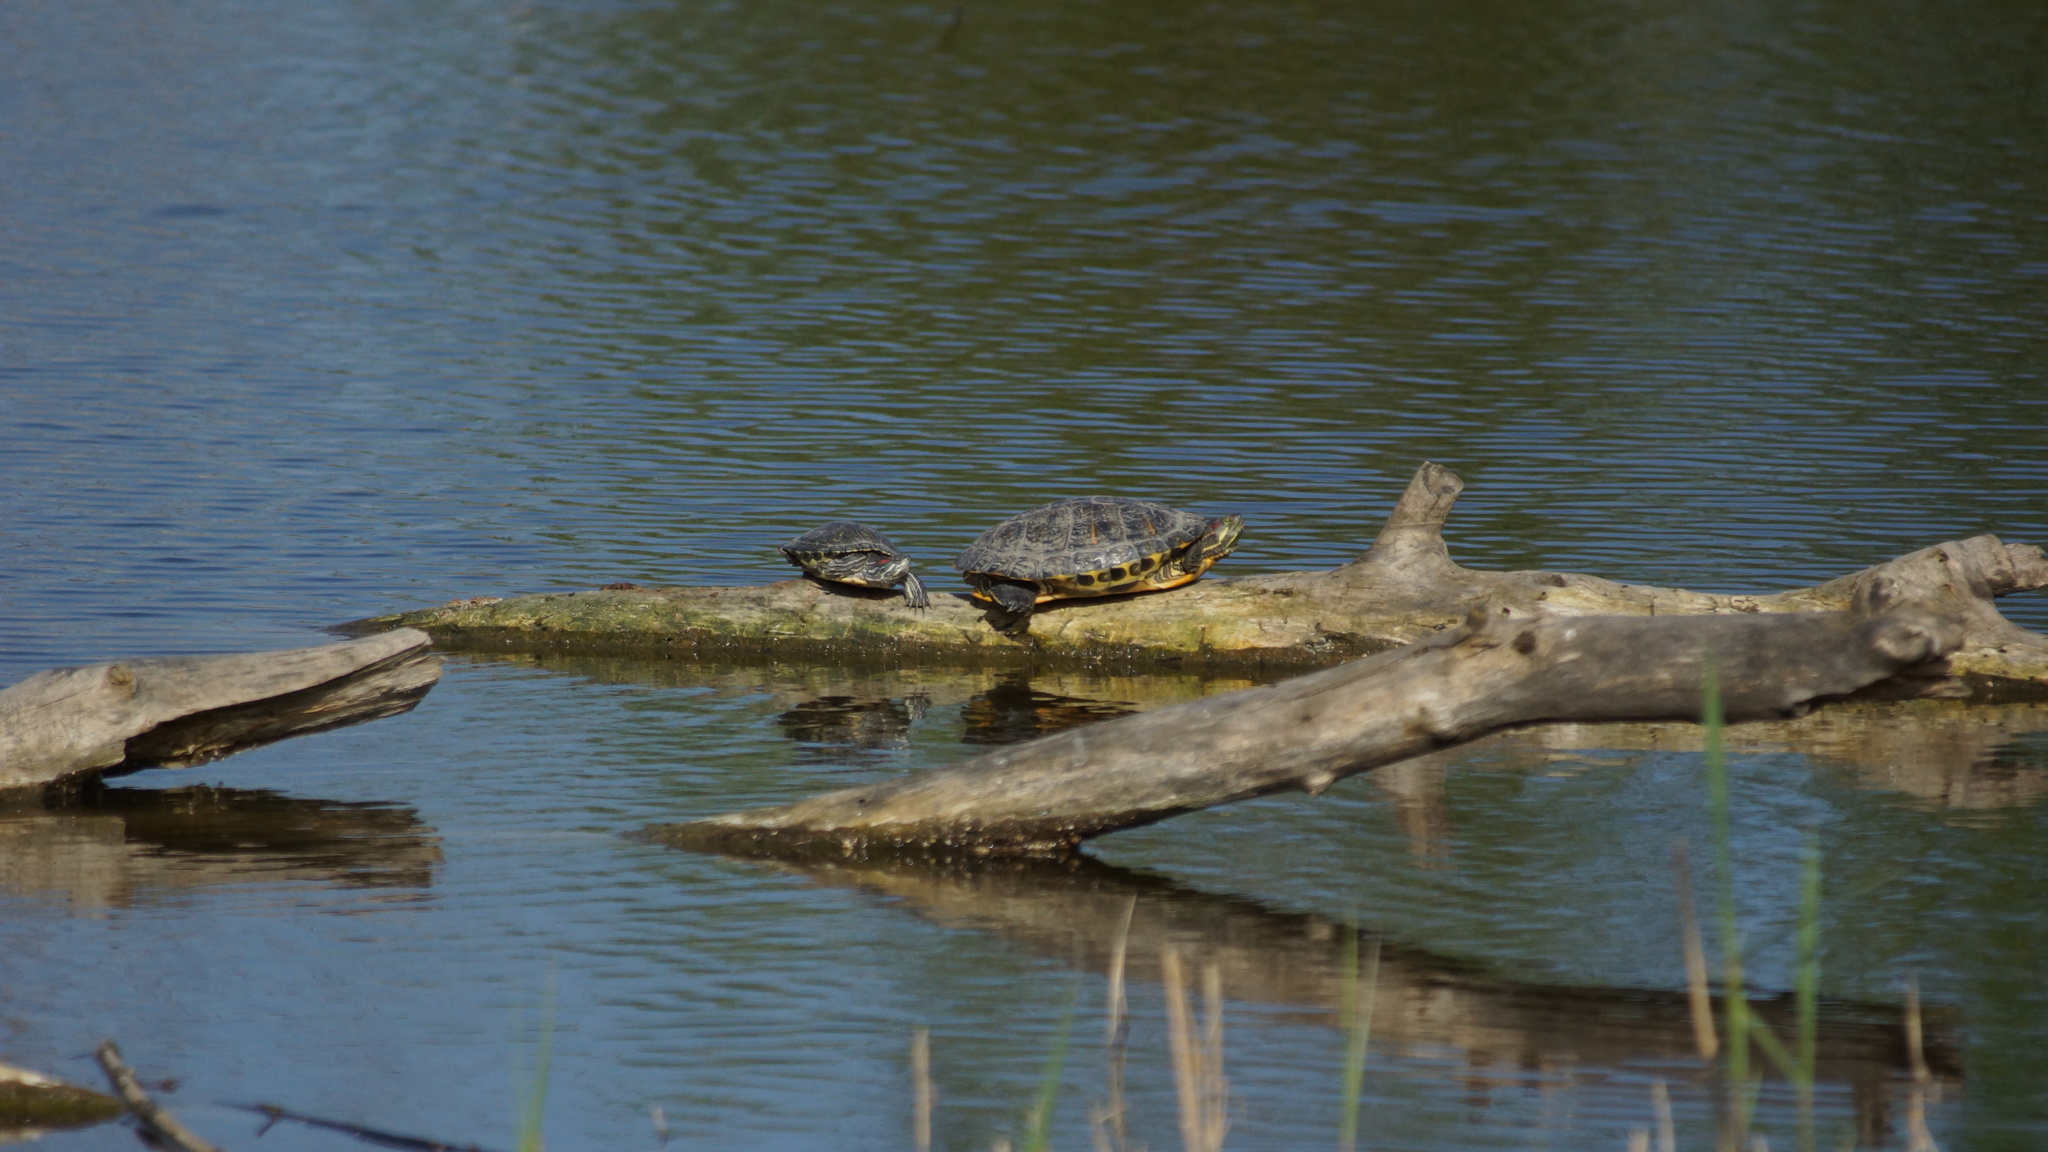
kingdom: Animalia
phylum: Chordata
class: Testudines
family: Emydidae
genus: Trachemys
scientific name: Trachemys scripta
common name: Slider
